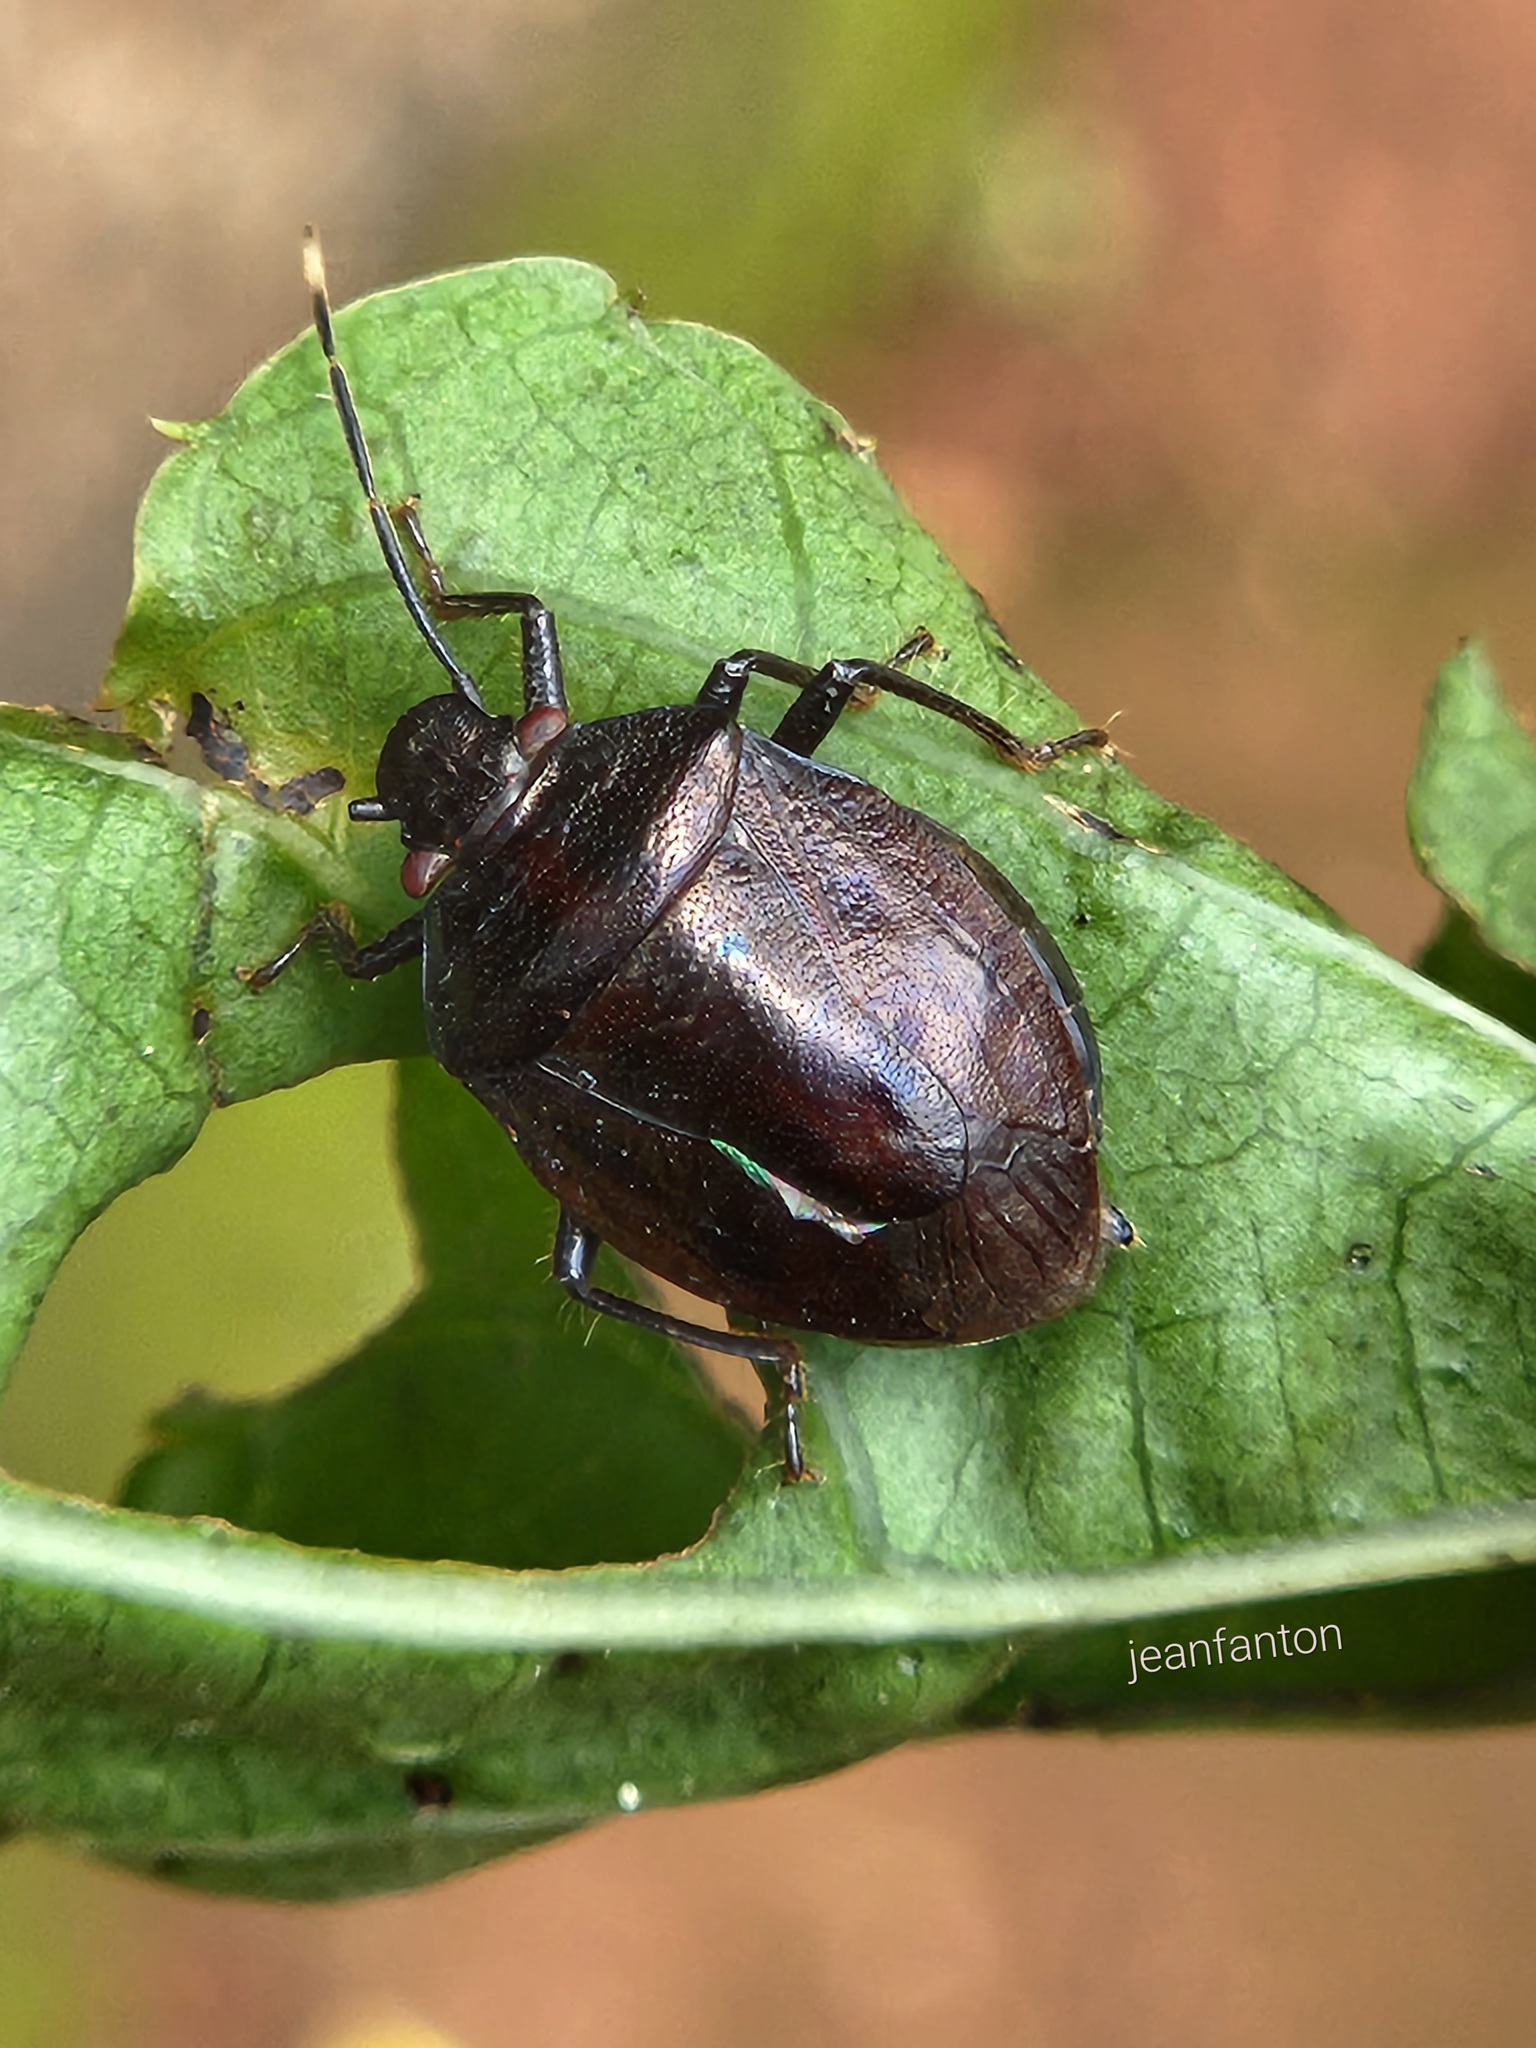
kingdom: Animalia
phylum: Arthropoda
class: Insecta
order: Hemiptera
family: Pentatomidae
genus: Antiteuchus
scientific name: Antiteuchus tripterus
